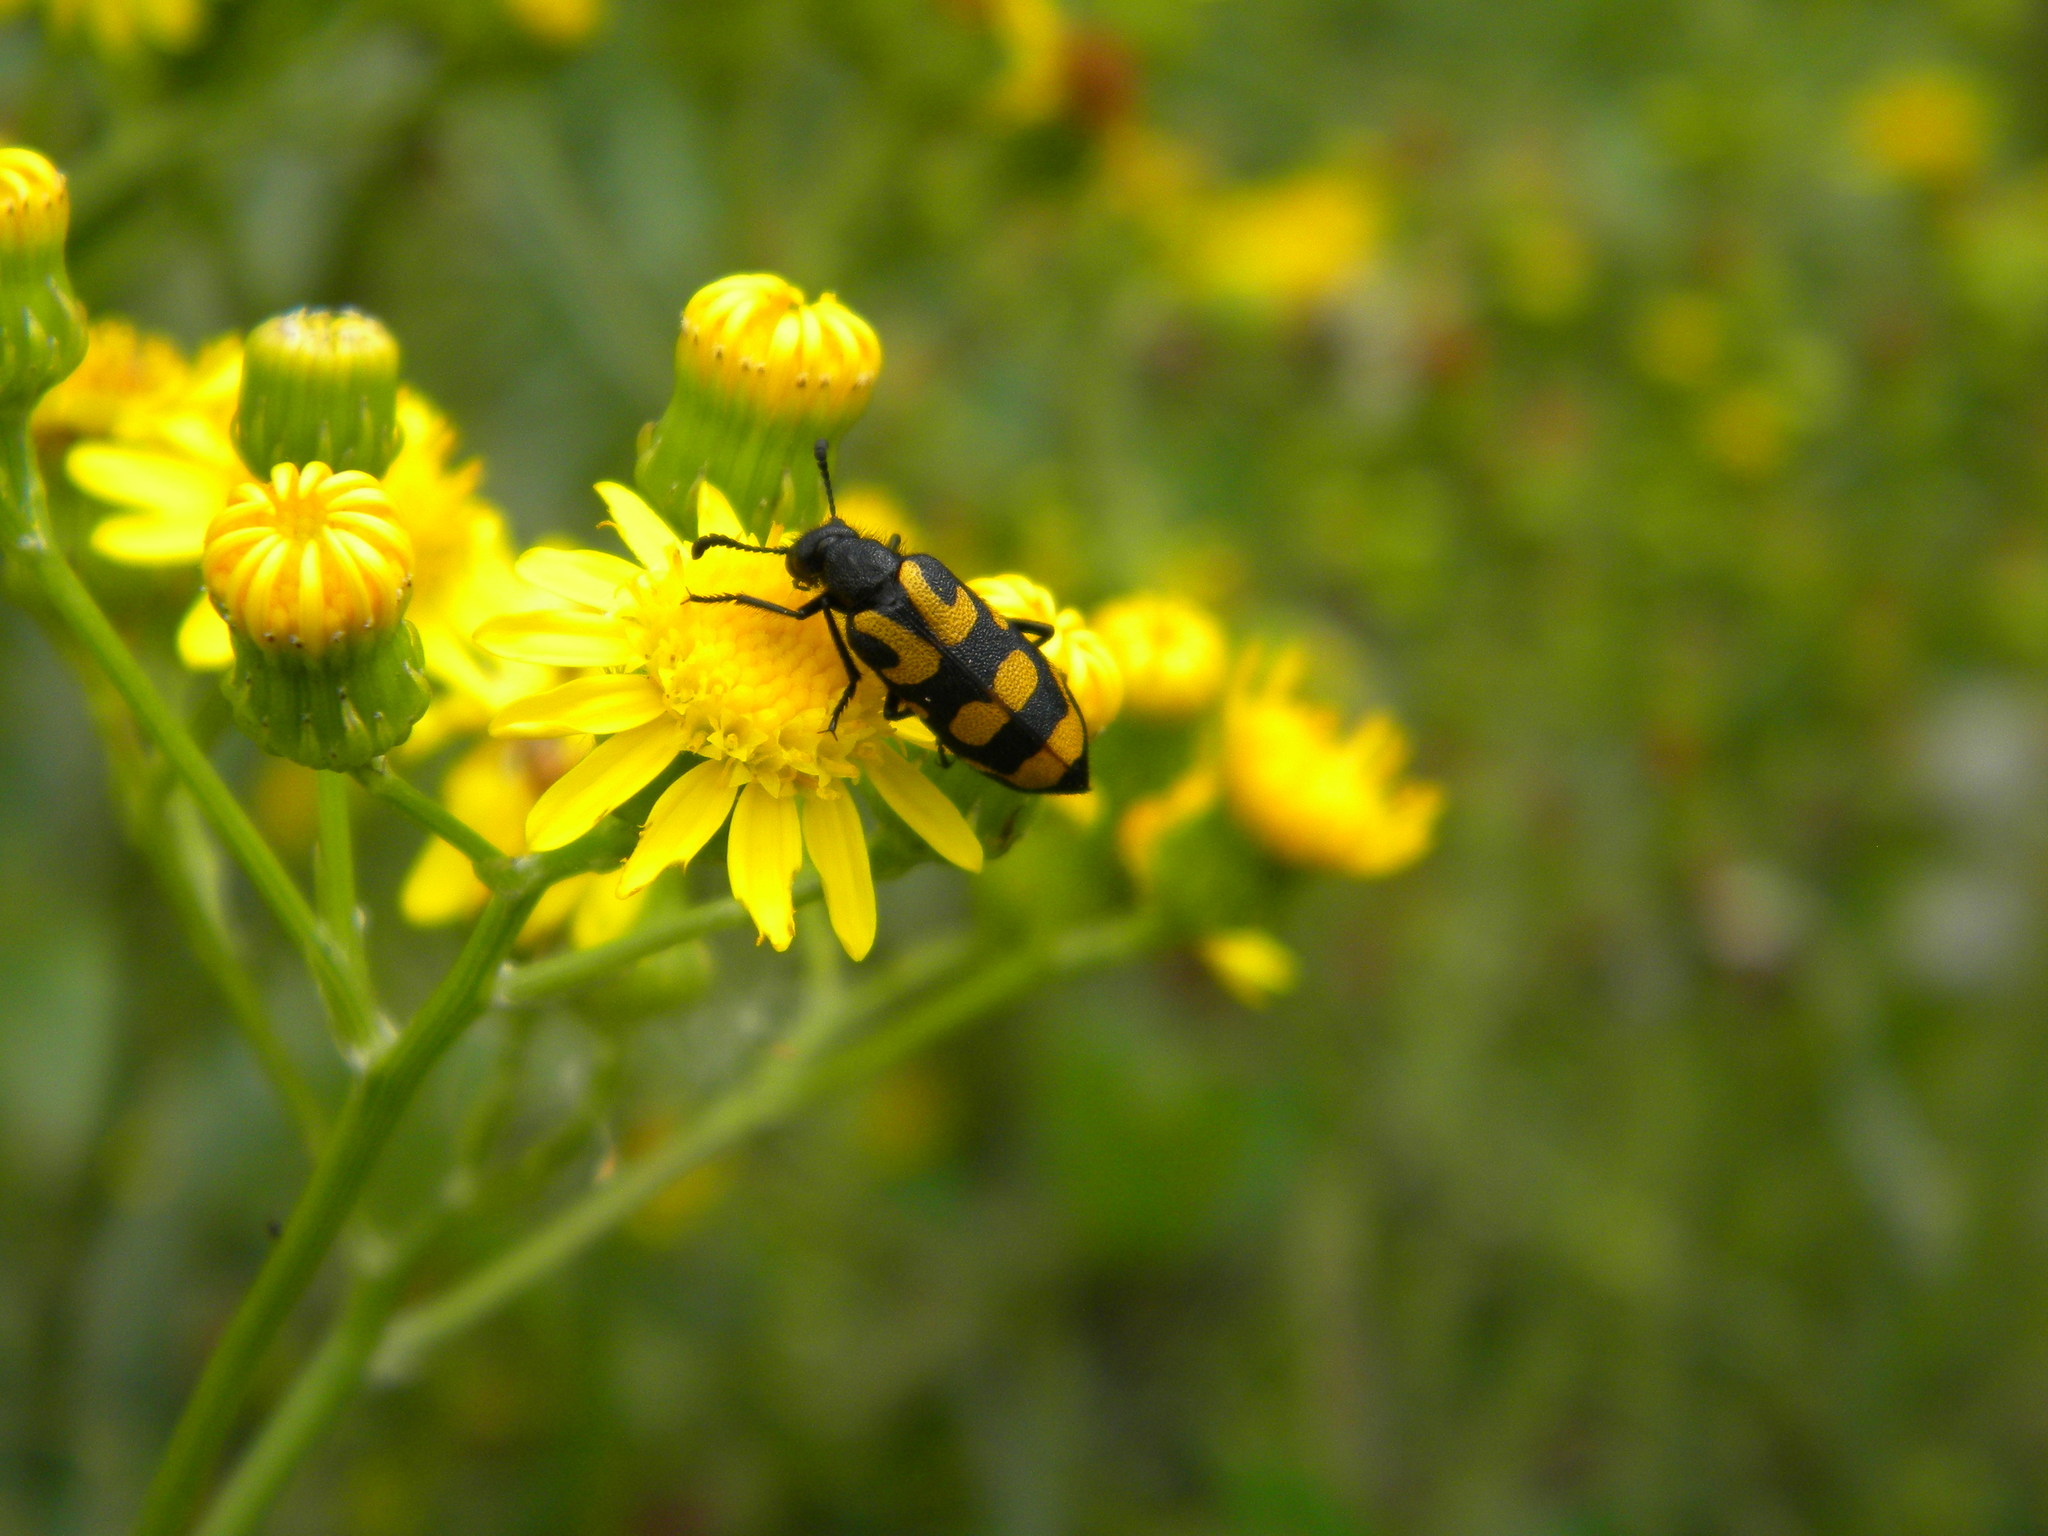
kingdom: Animalia
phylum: Arthropoda
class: Insecta
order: Coleoptera
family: Meloidae
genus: Ceroctis
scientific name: Ceroctis capensis
